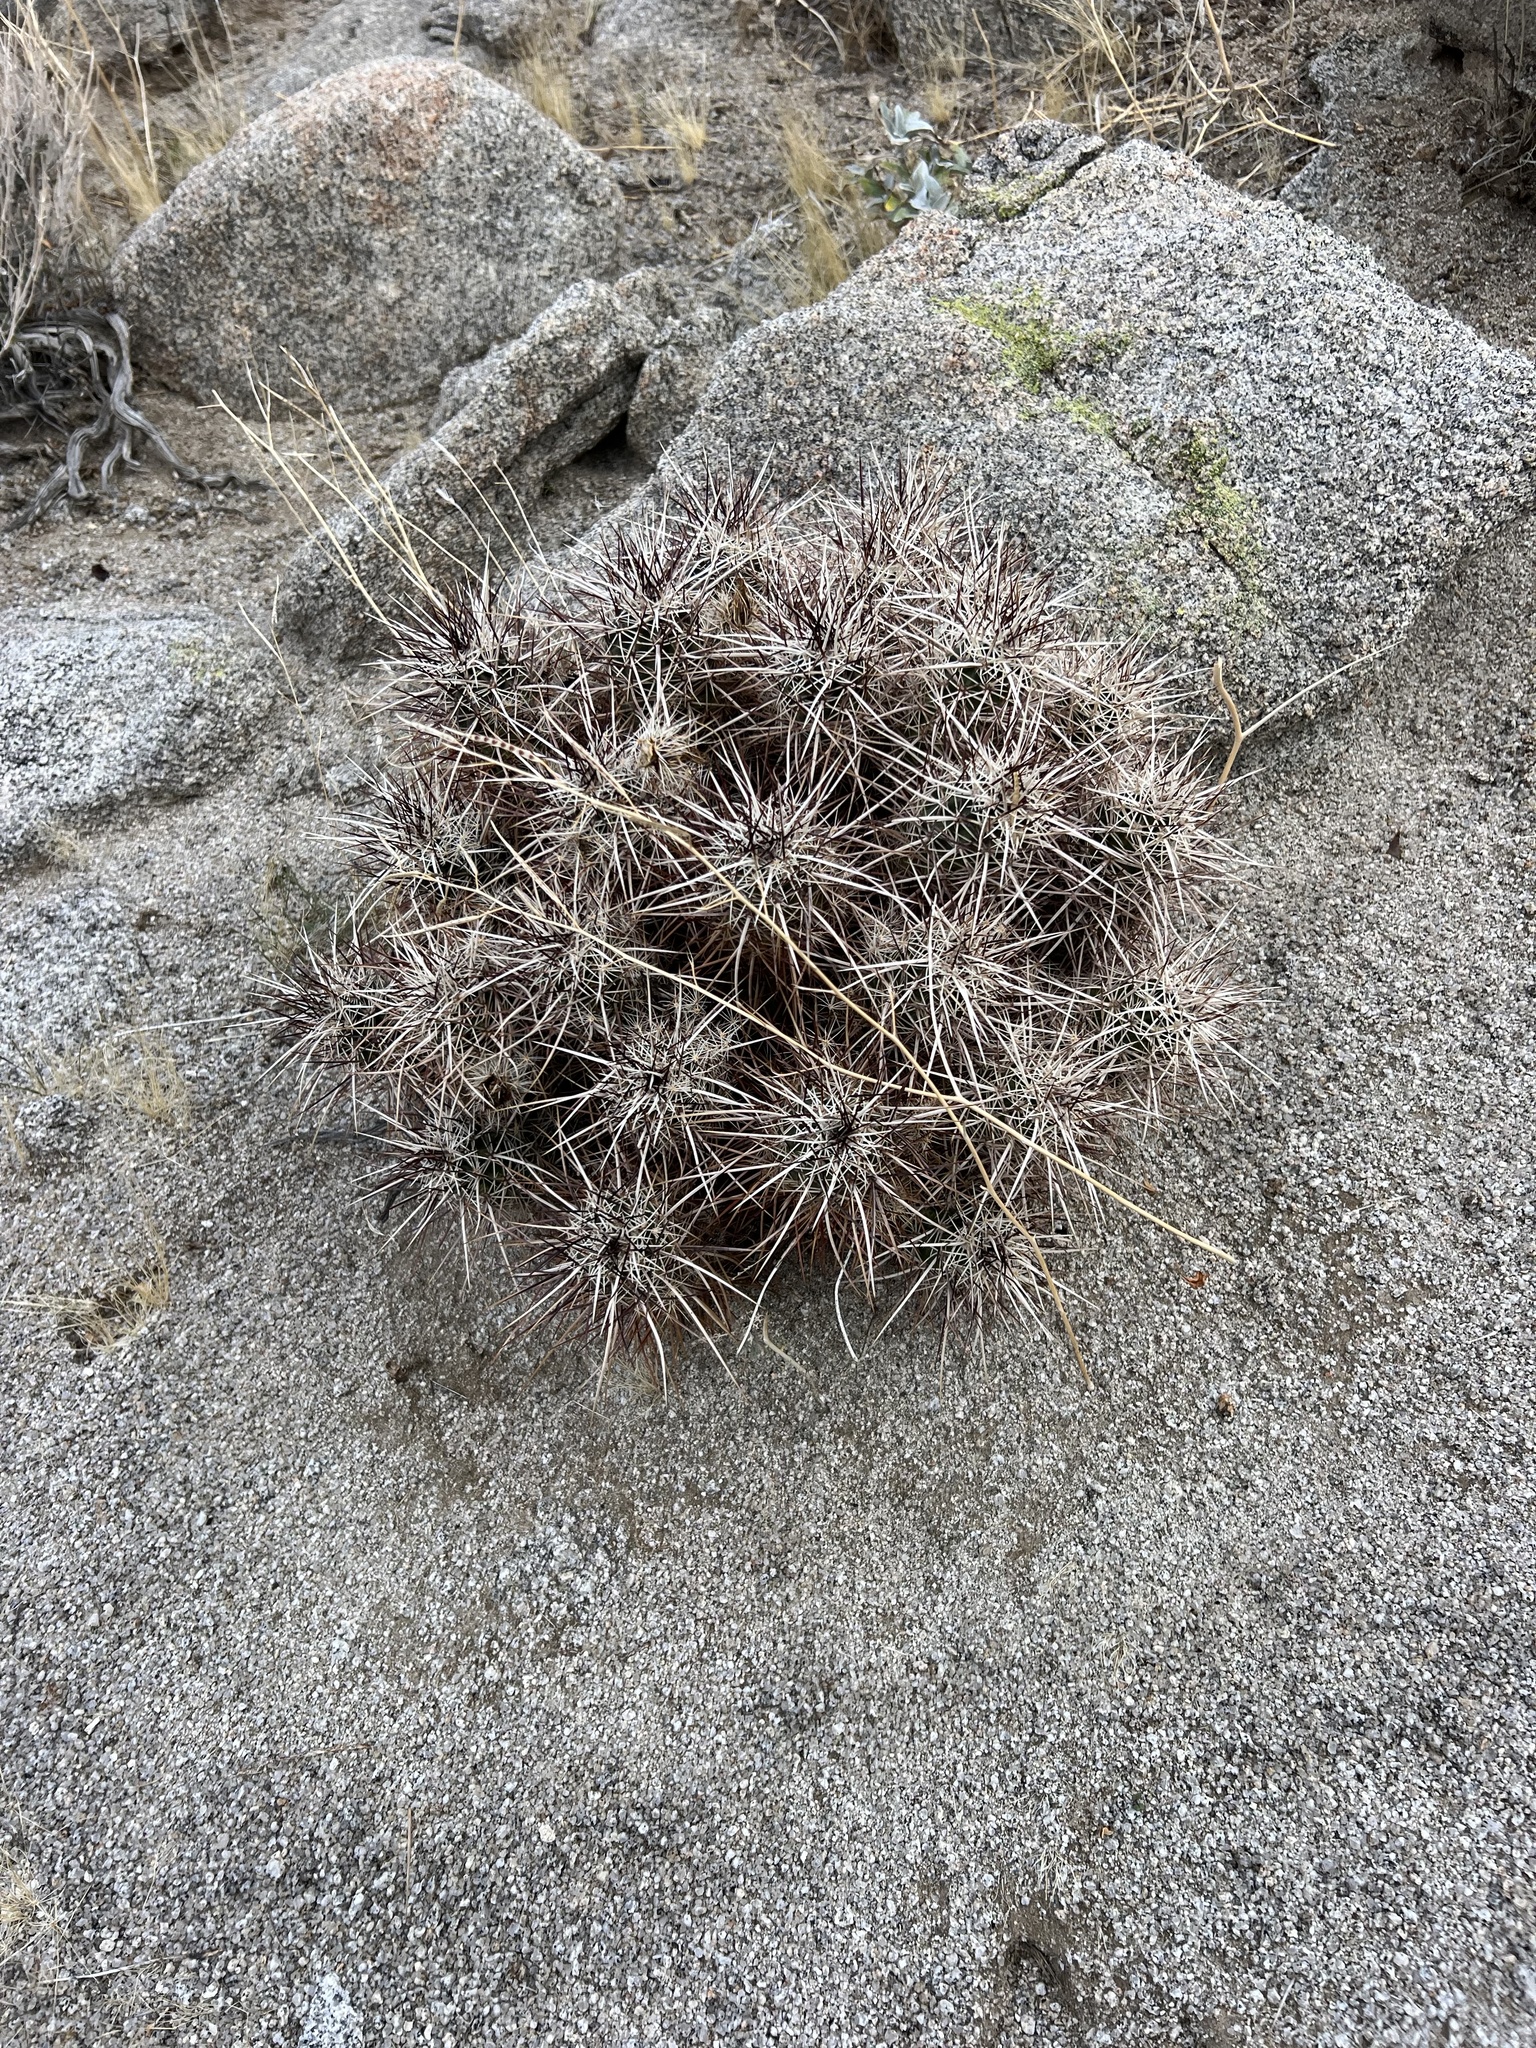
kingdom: Plantae
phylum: Tracheophyta
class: Magnoliopsida
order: Caryophyllales
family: Cactaceae
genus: Echinocereus
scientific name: Echinocereus engelmannii
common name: Engelmann's hedgehog cactus
